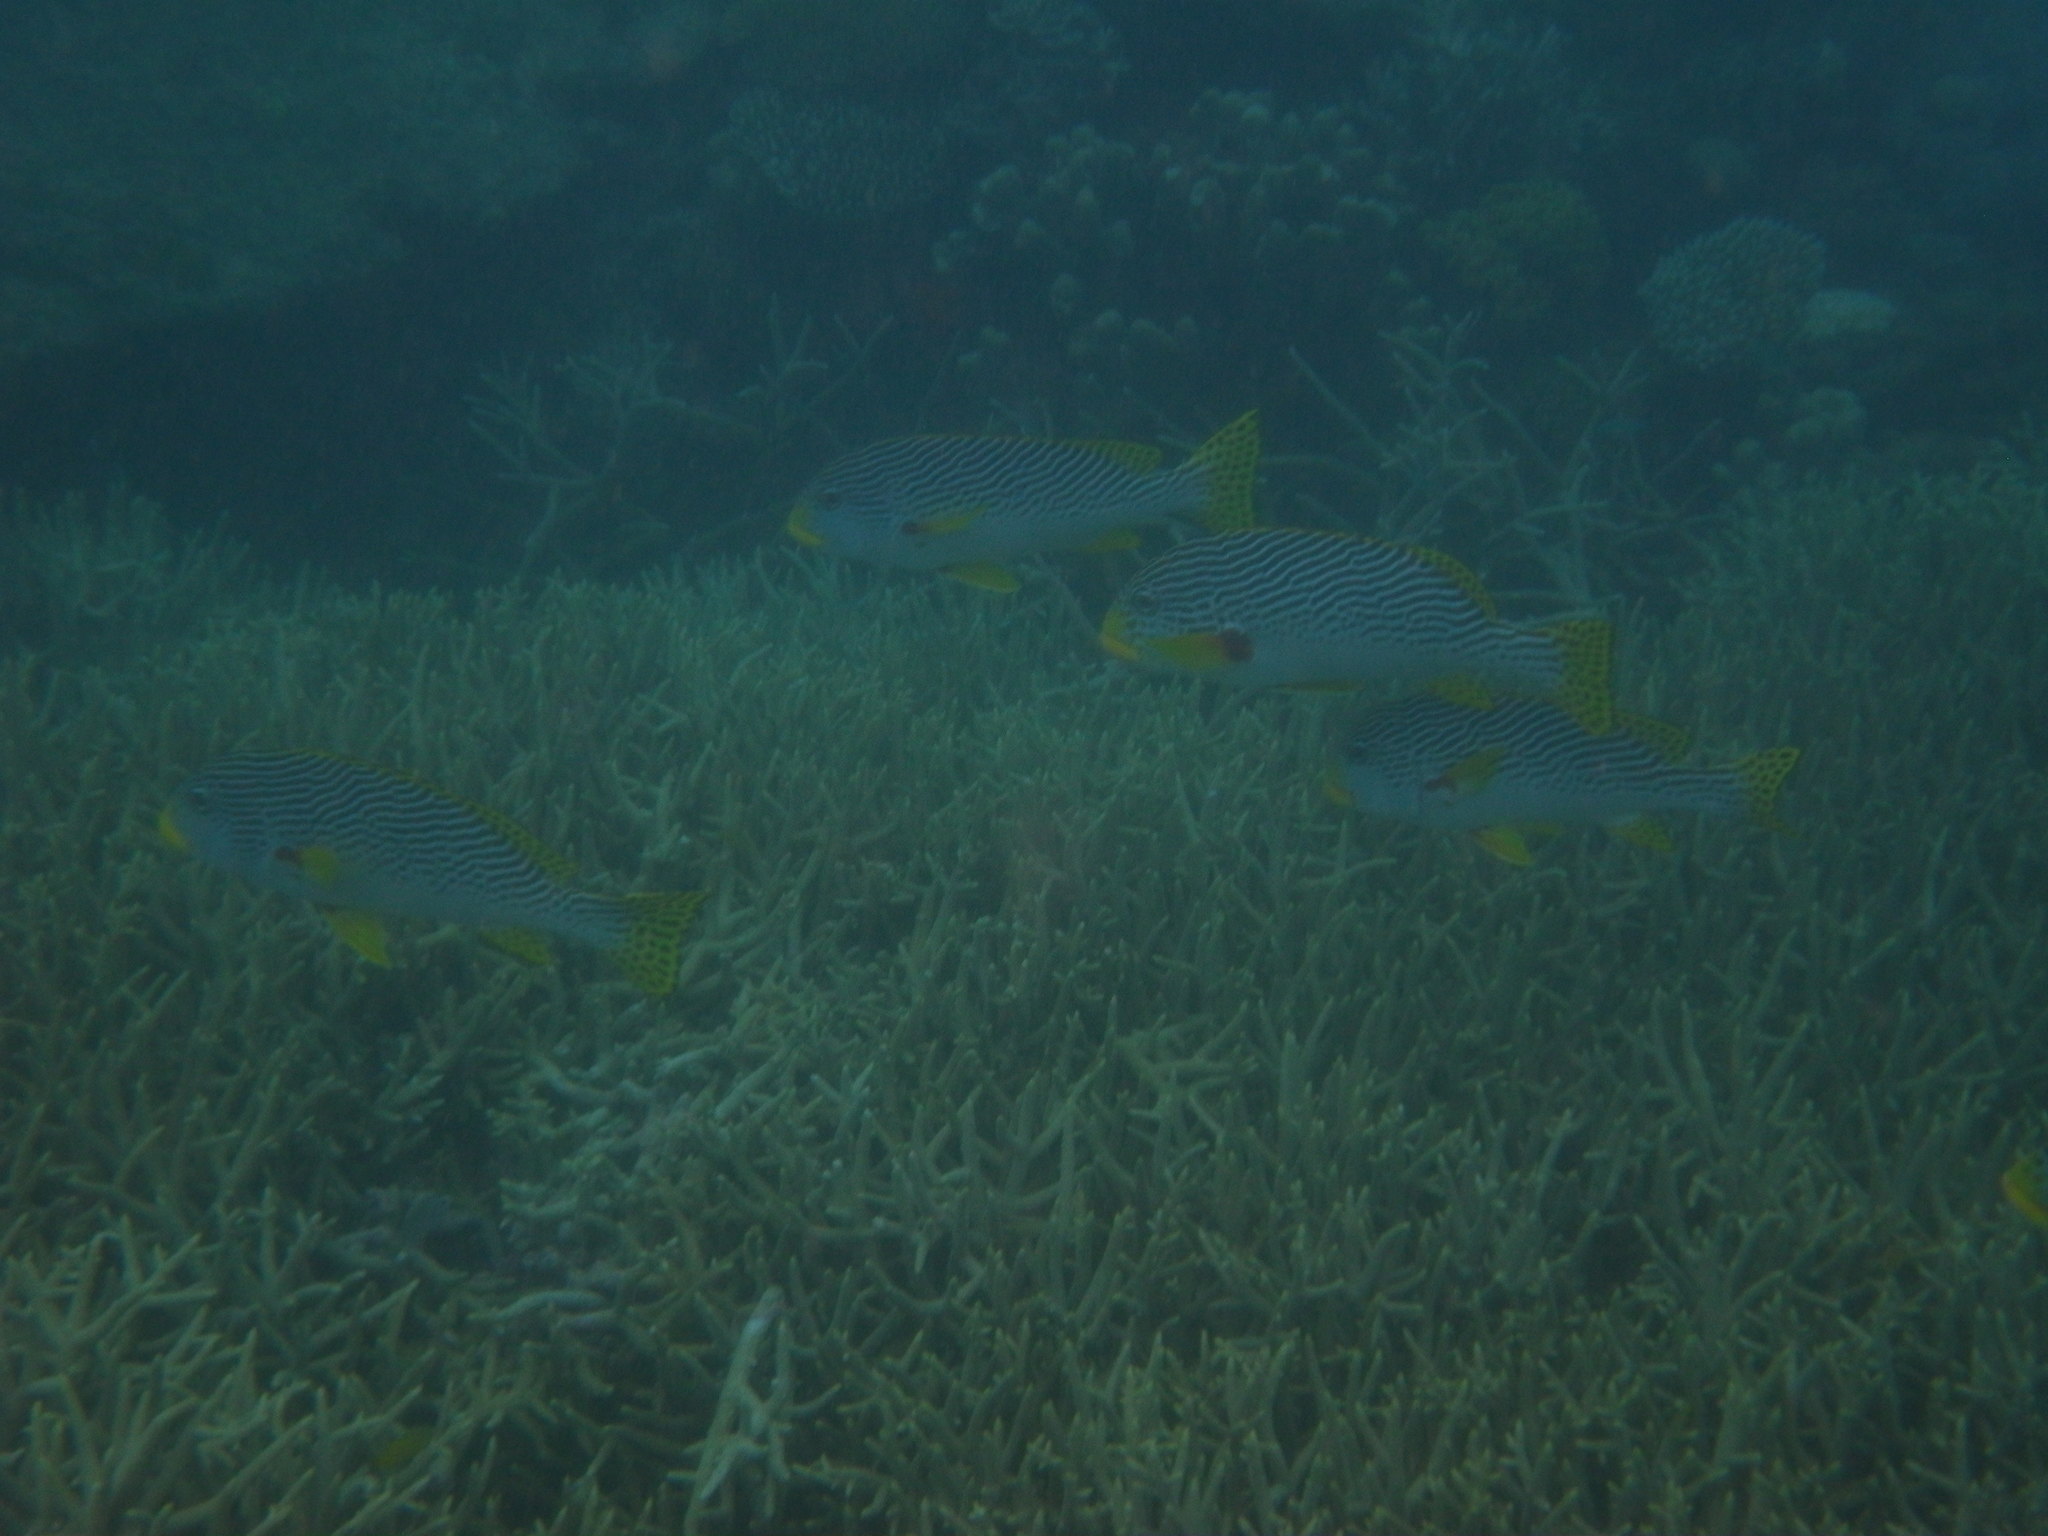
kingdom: Animalia
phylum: Chordata
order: Perciformes
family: Haemulidae
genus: Plectorhinchus
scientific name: Plectorhinchus lineatus
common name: Goldman's sweetlips
